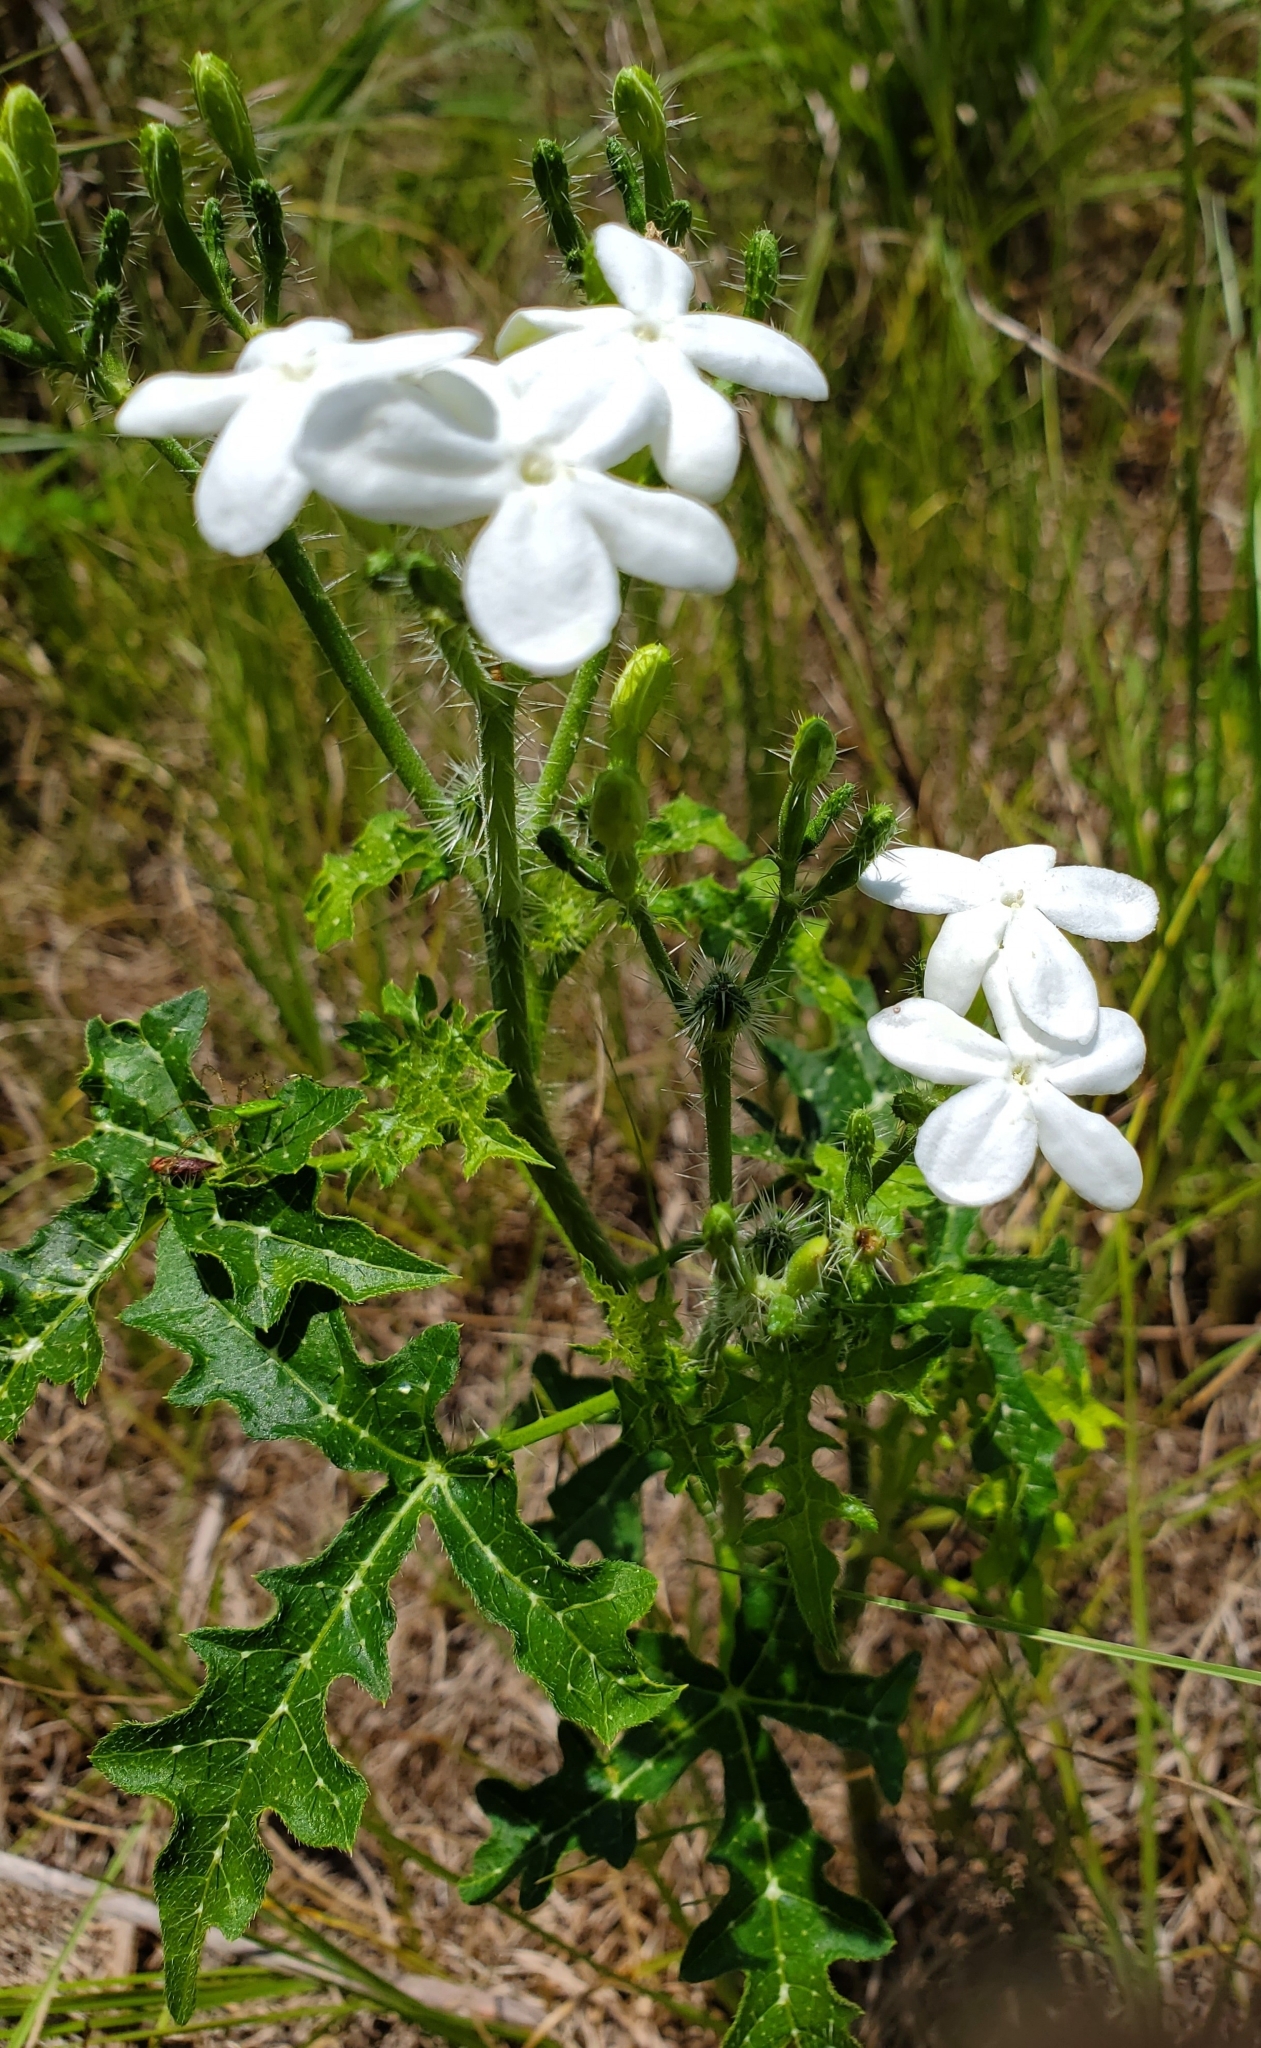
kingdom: Plantae
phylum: Tracheophyta
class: Magnoliopsida
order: Malpighiales
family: Euphorbiaceae
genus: Cnidoscolus
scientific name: Cnidoscolus stimulosus
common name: Bull-nettle
